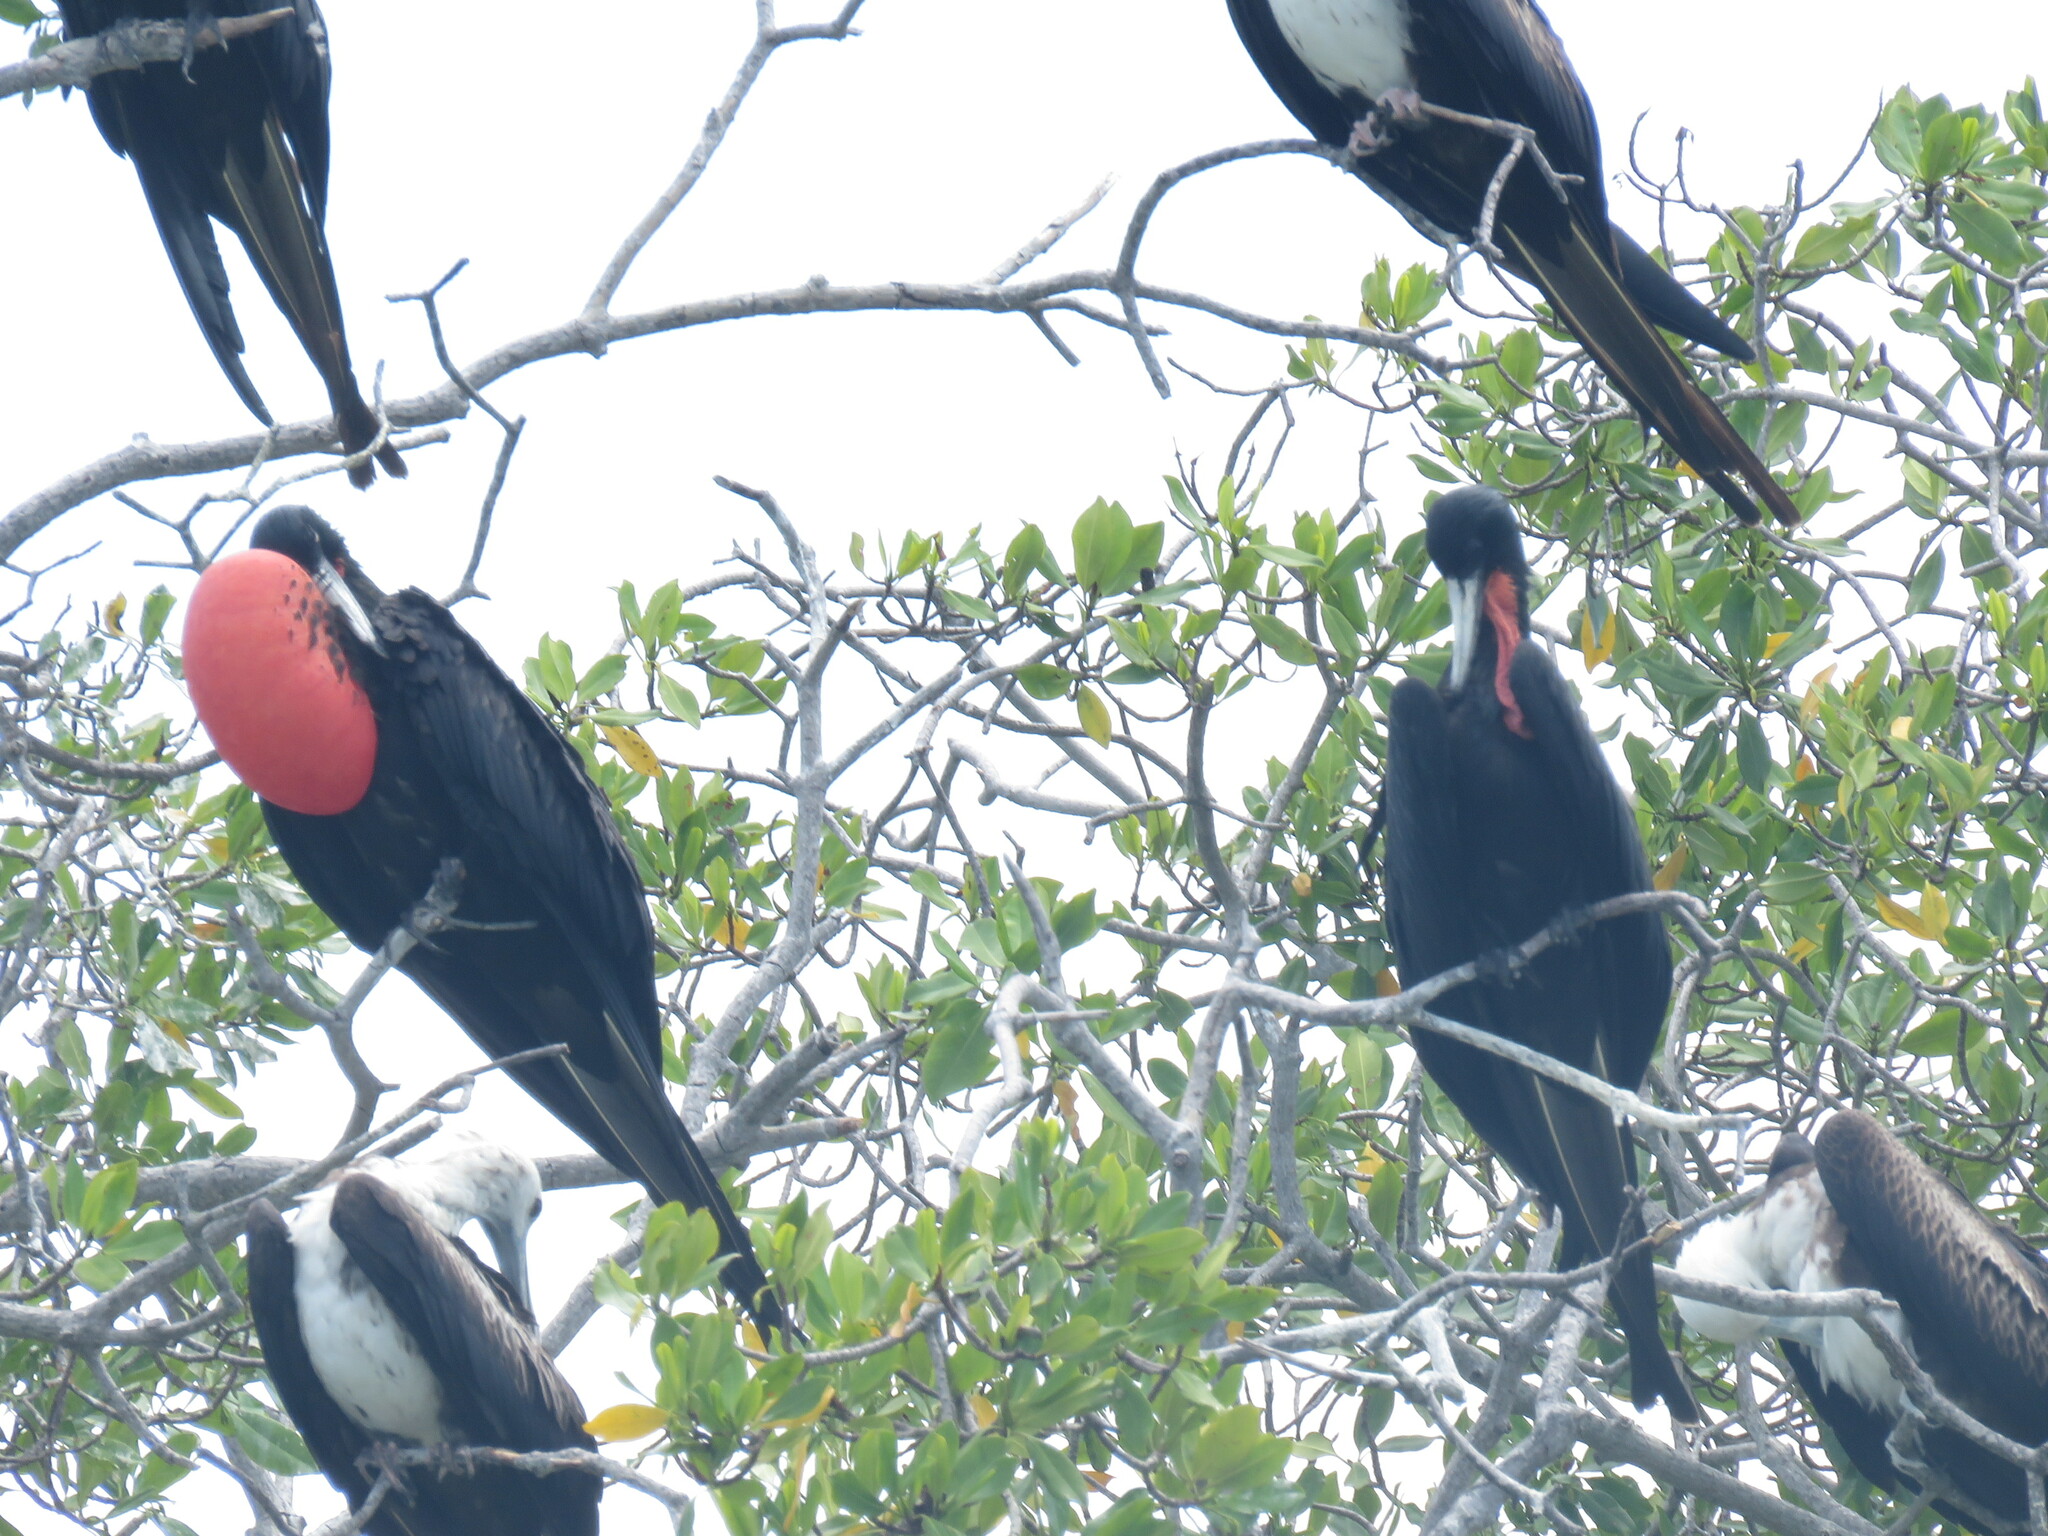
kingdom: Animalia
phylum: Chordata
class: Aves
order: Suliformes
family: Fregatidae
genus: Fregata
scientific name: Fregata magnificens
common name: Magnificent frigatebird
